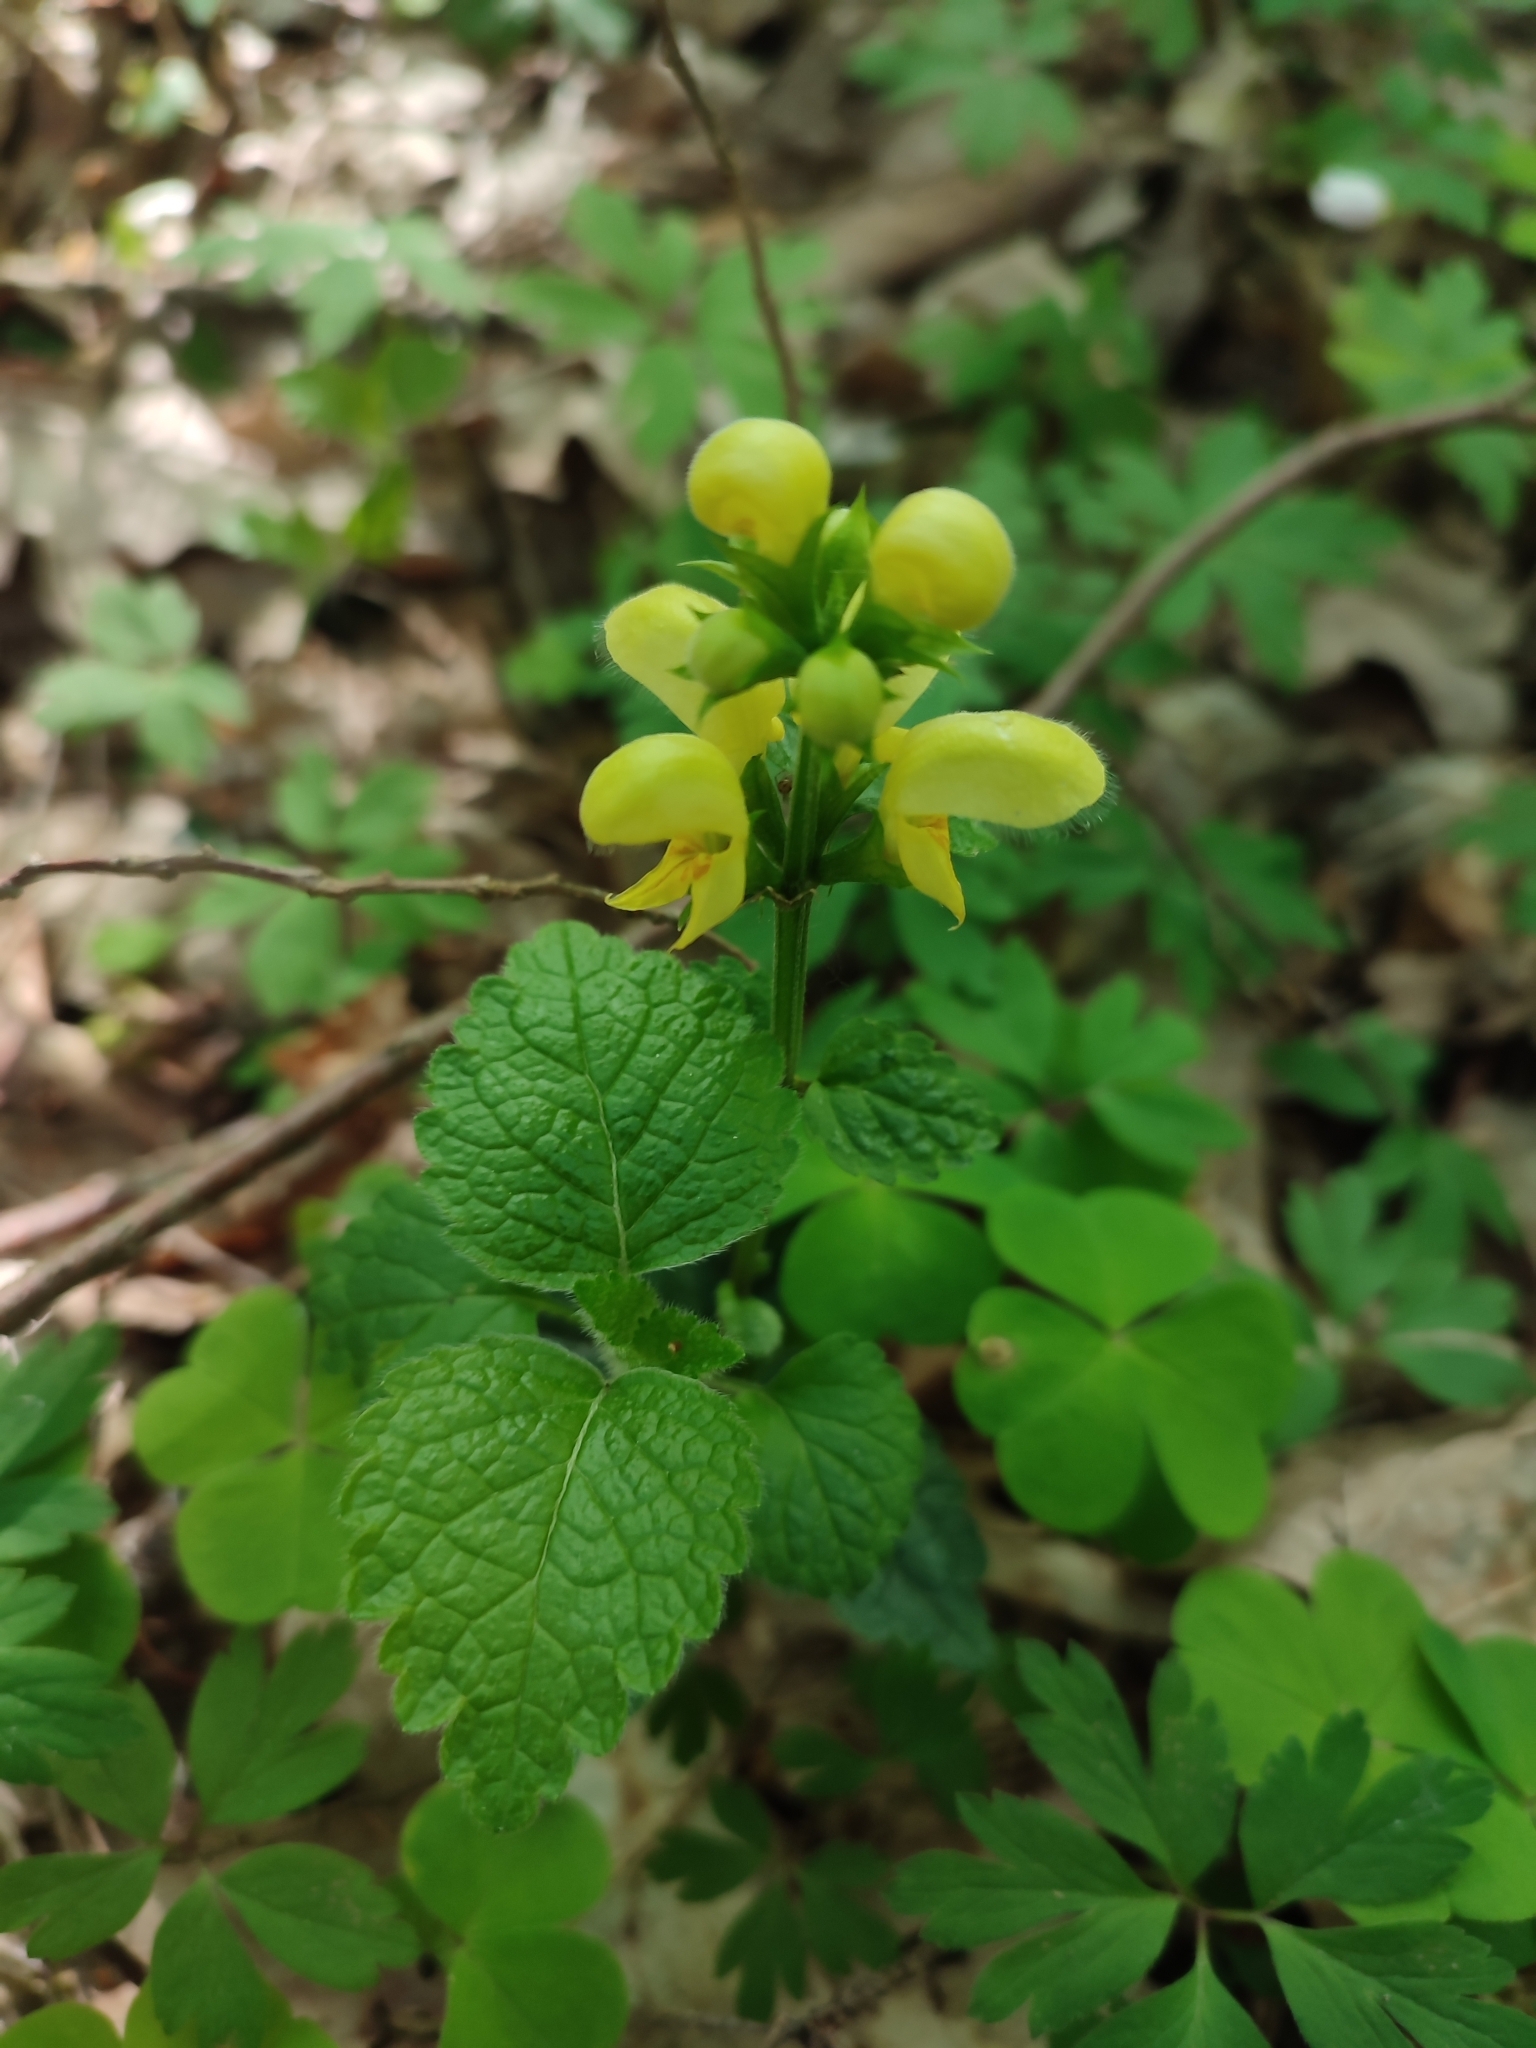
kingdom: Plantae
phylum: Tracheophyta
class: Magnoliopsida
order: Lamiales
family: Lamiaceae
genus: Lamium
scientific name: Lamium galeobdolon
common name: Yellow archangel
